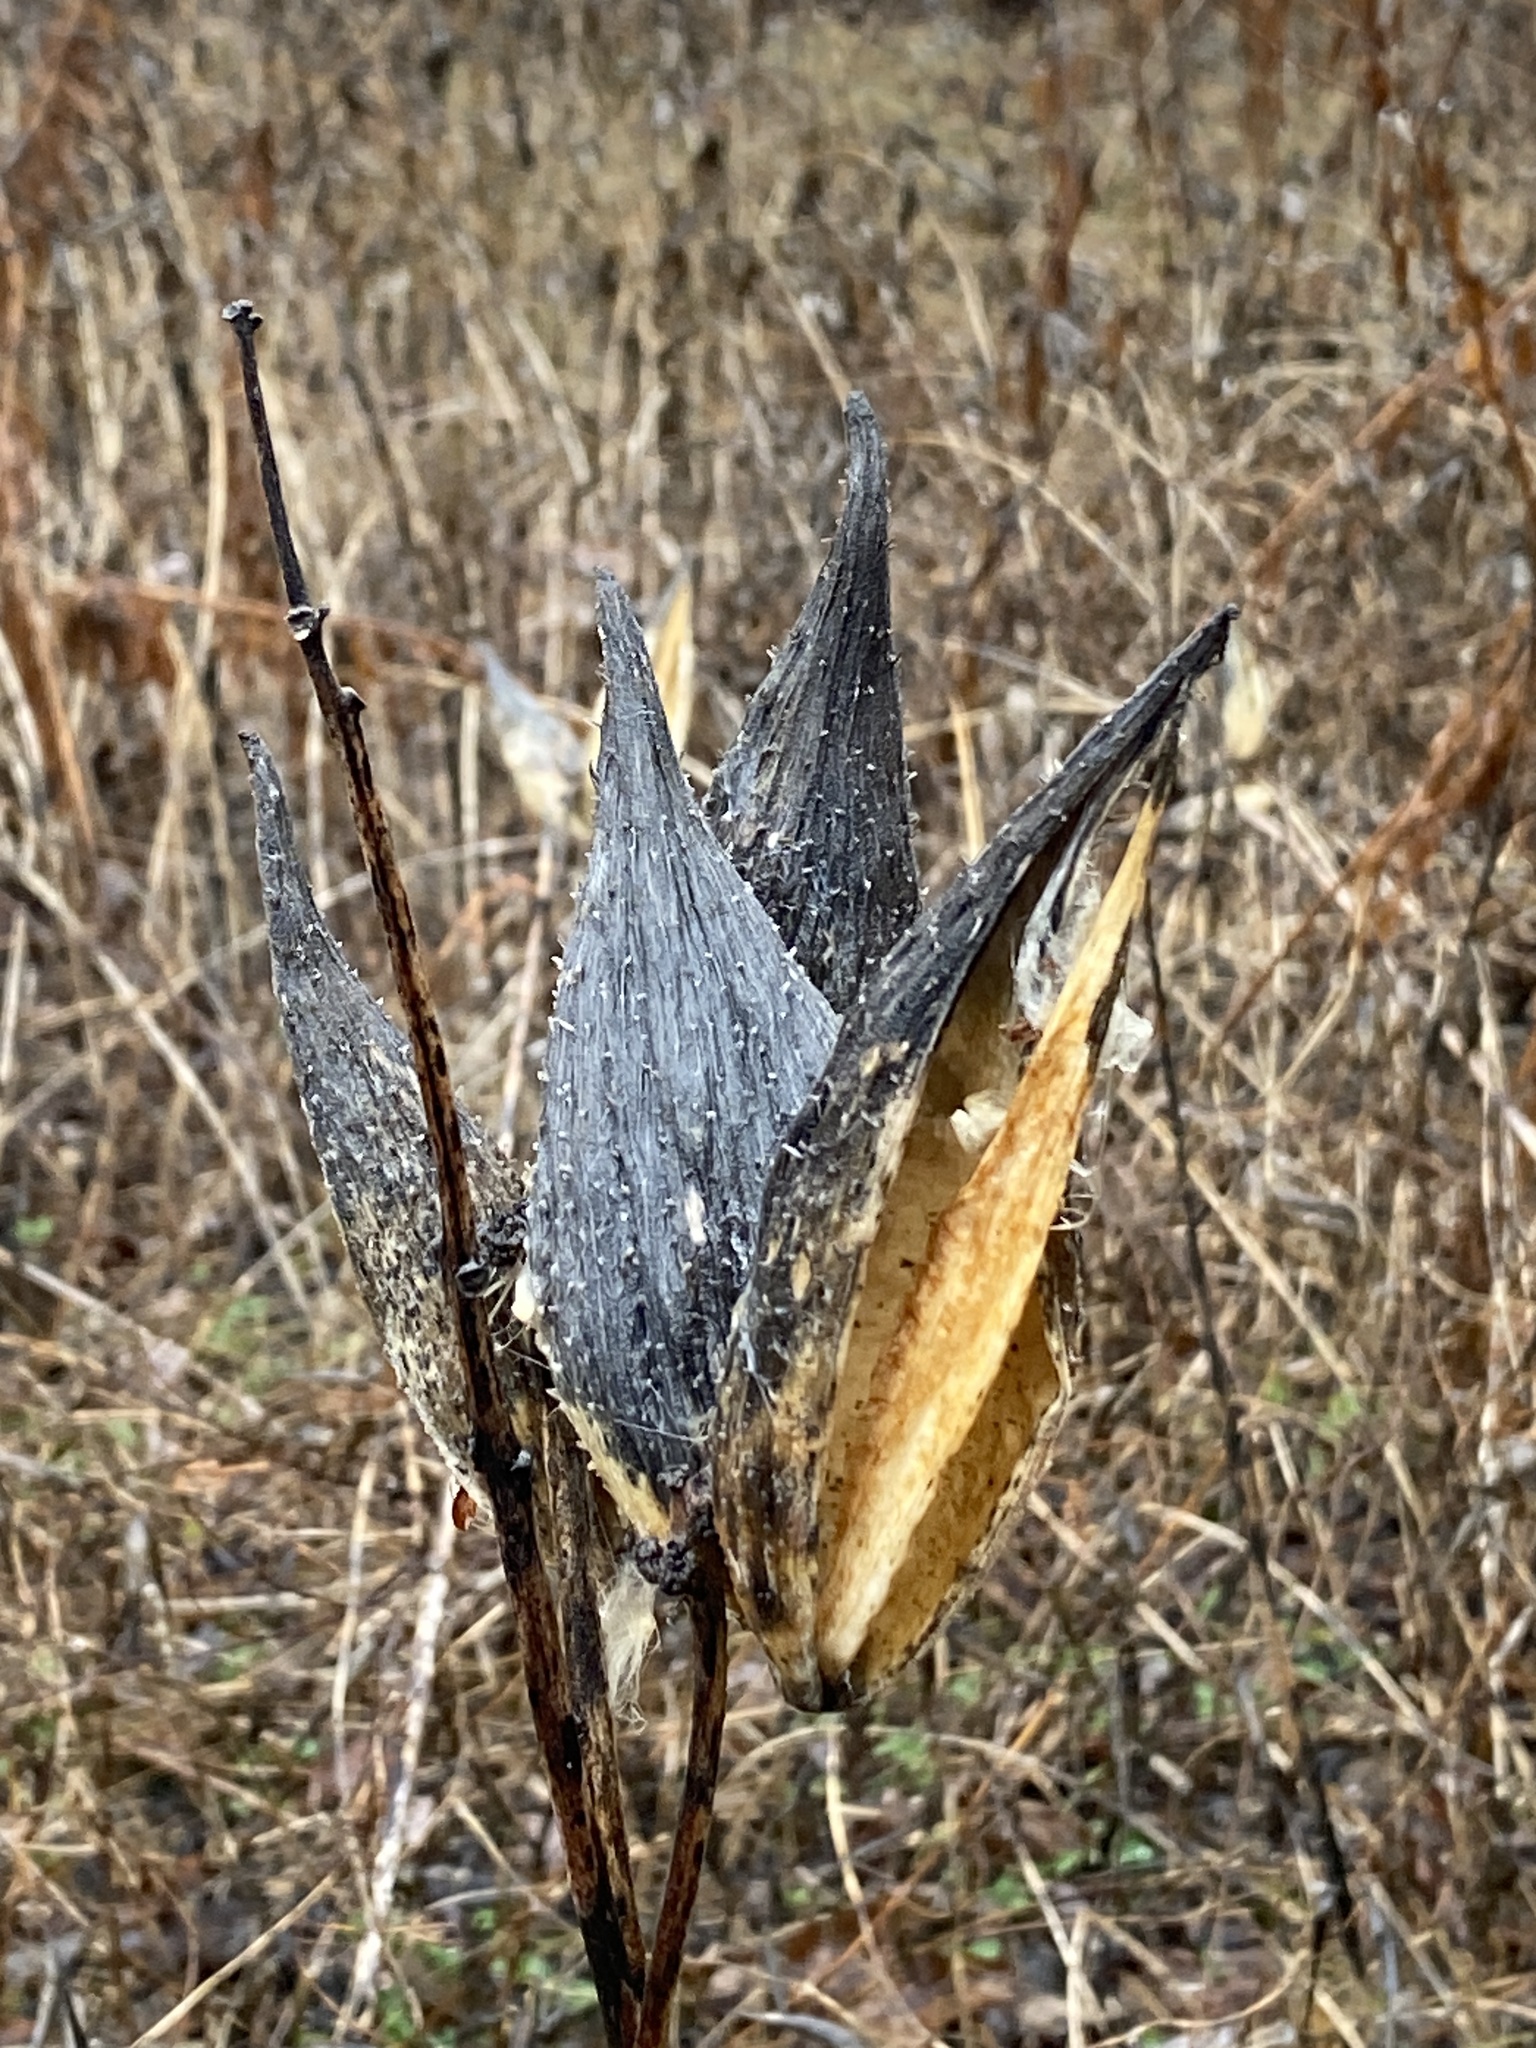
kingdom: Plantae
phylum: Tracheophyta
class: Magnoliopsida
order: Gentianales
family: Apocynaceae
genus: Asclepias
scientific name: Asclepias syriaca
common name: Common milkweed
